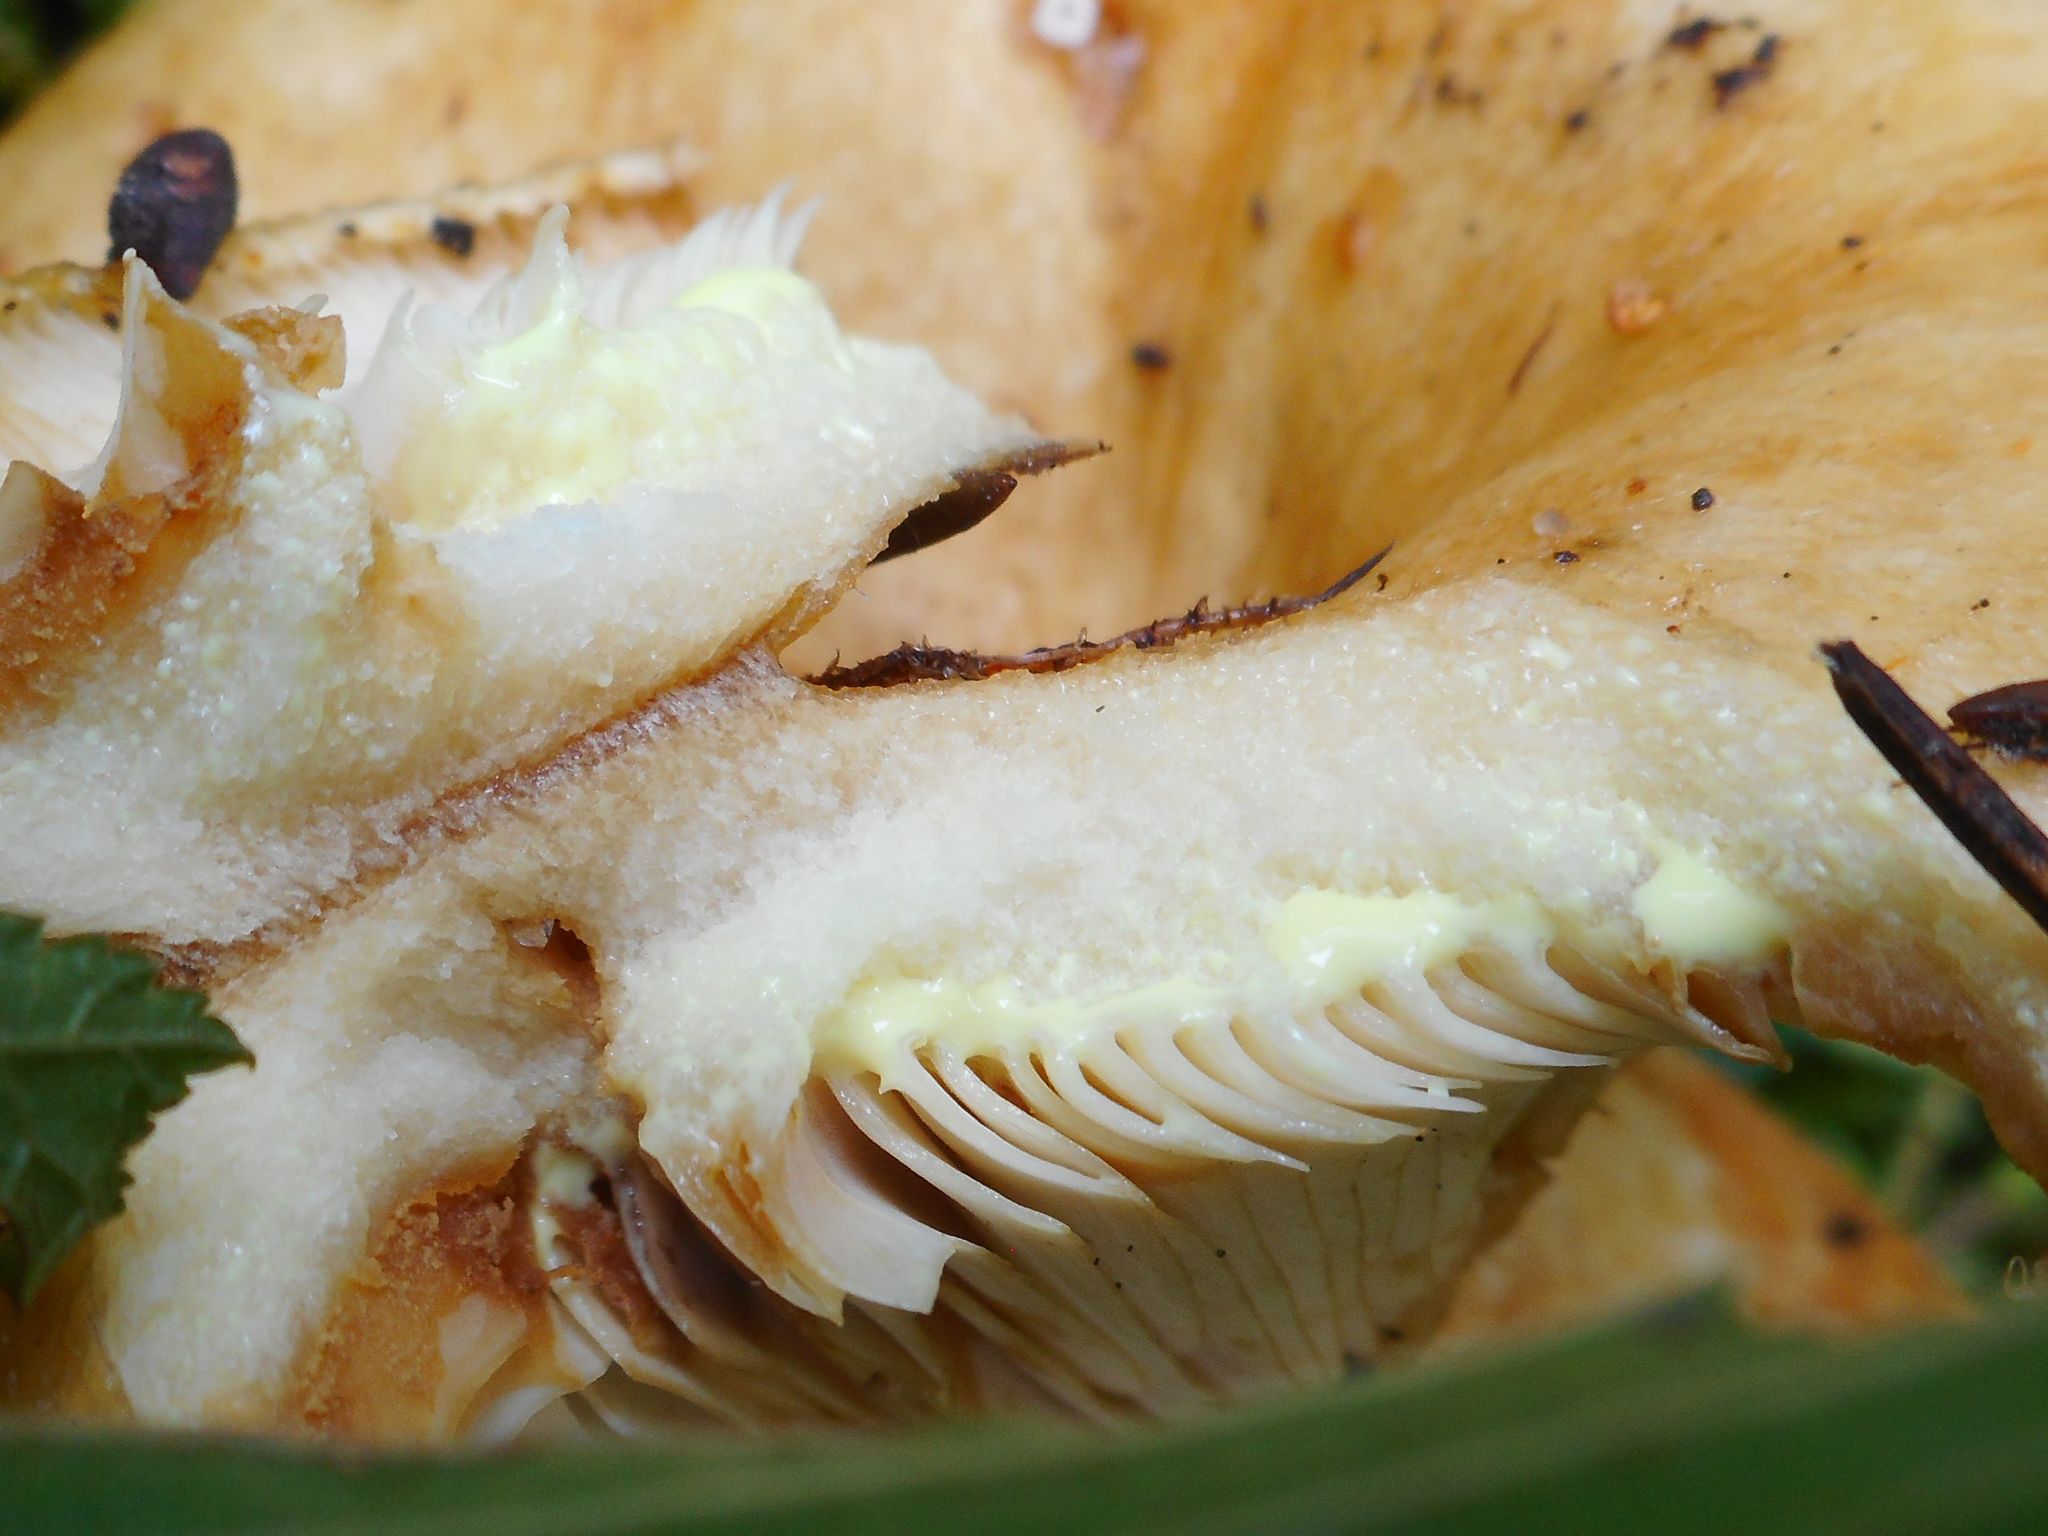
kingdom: Fungi
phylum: Basidiomycota
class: Agaricomycetes
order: Russulales
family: Russulaceae
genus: Lactarius
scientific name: Lactarius scrobiculatus
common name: Spotted milkcap
